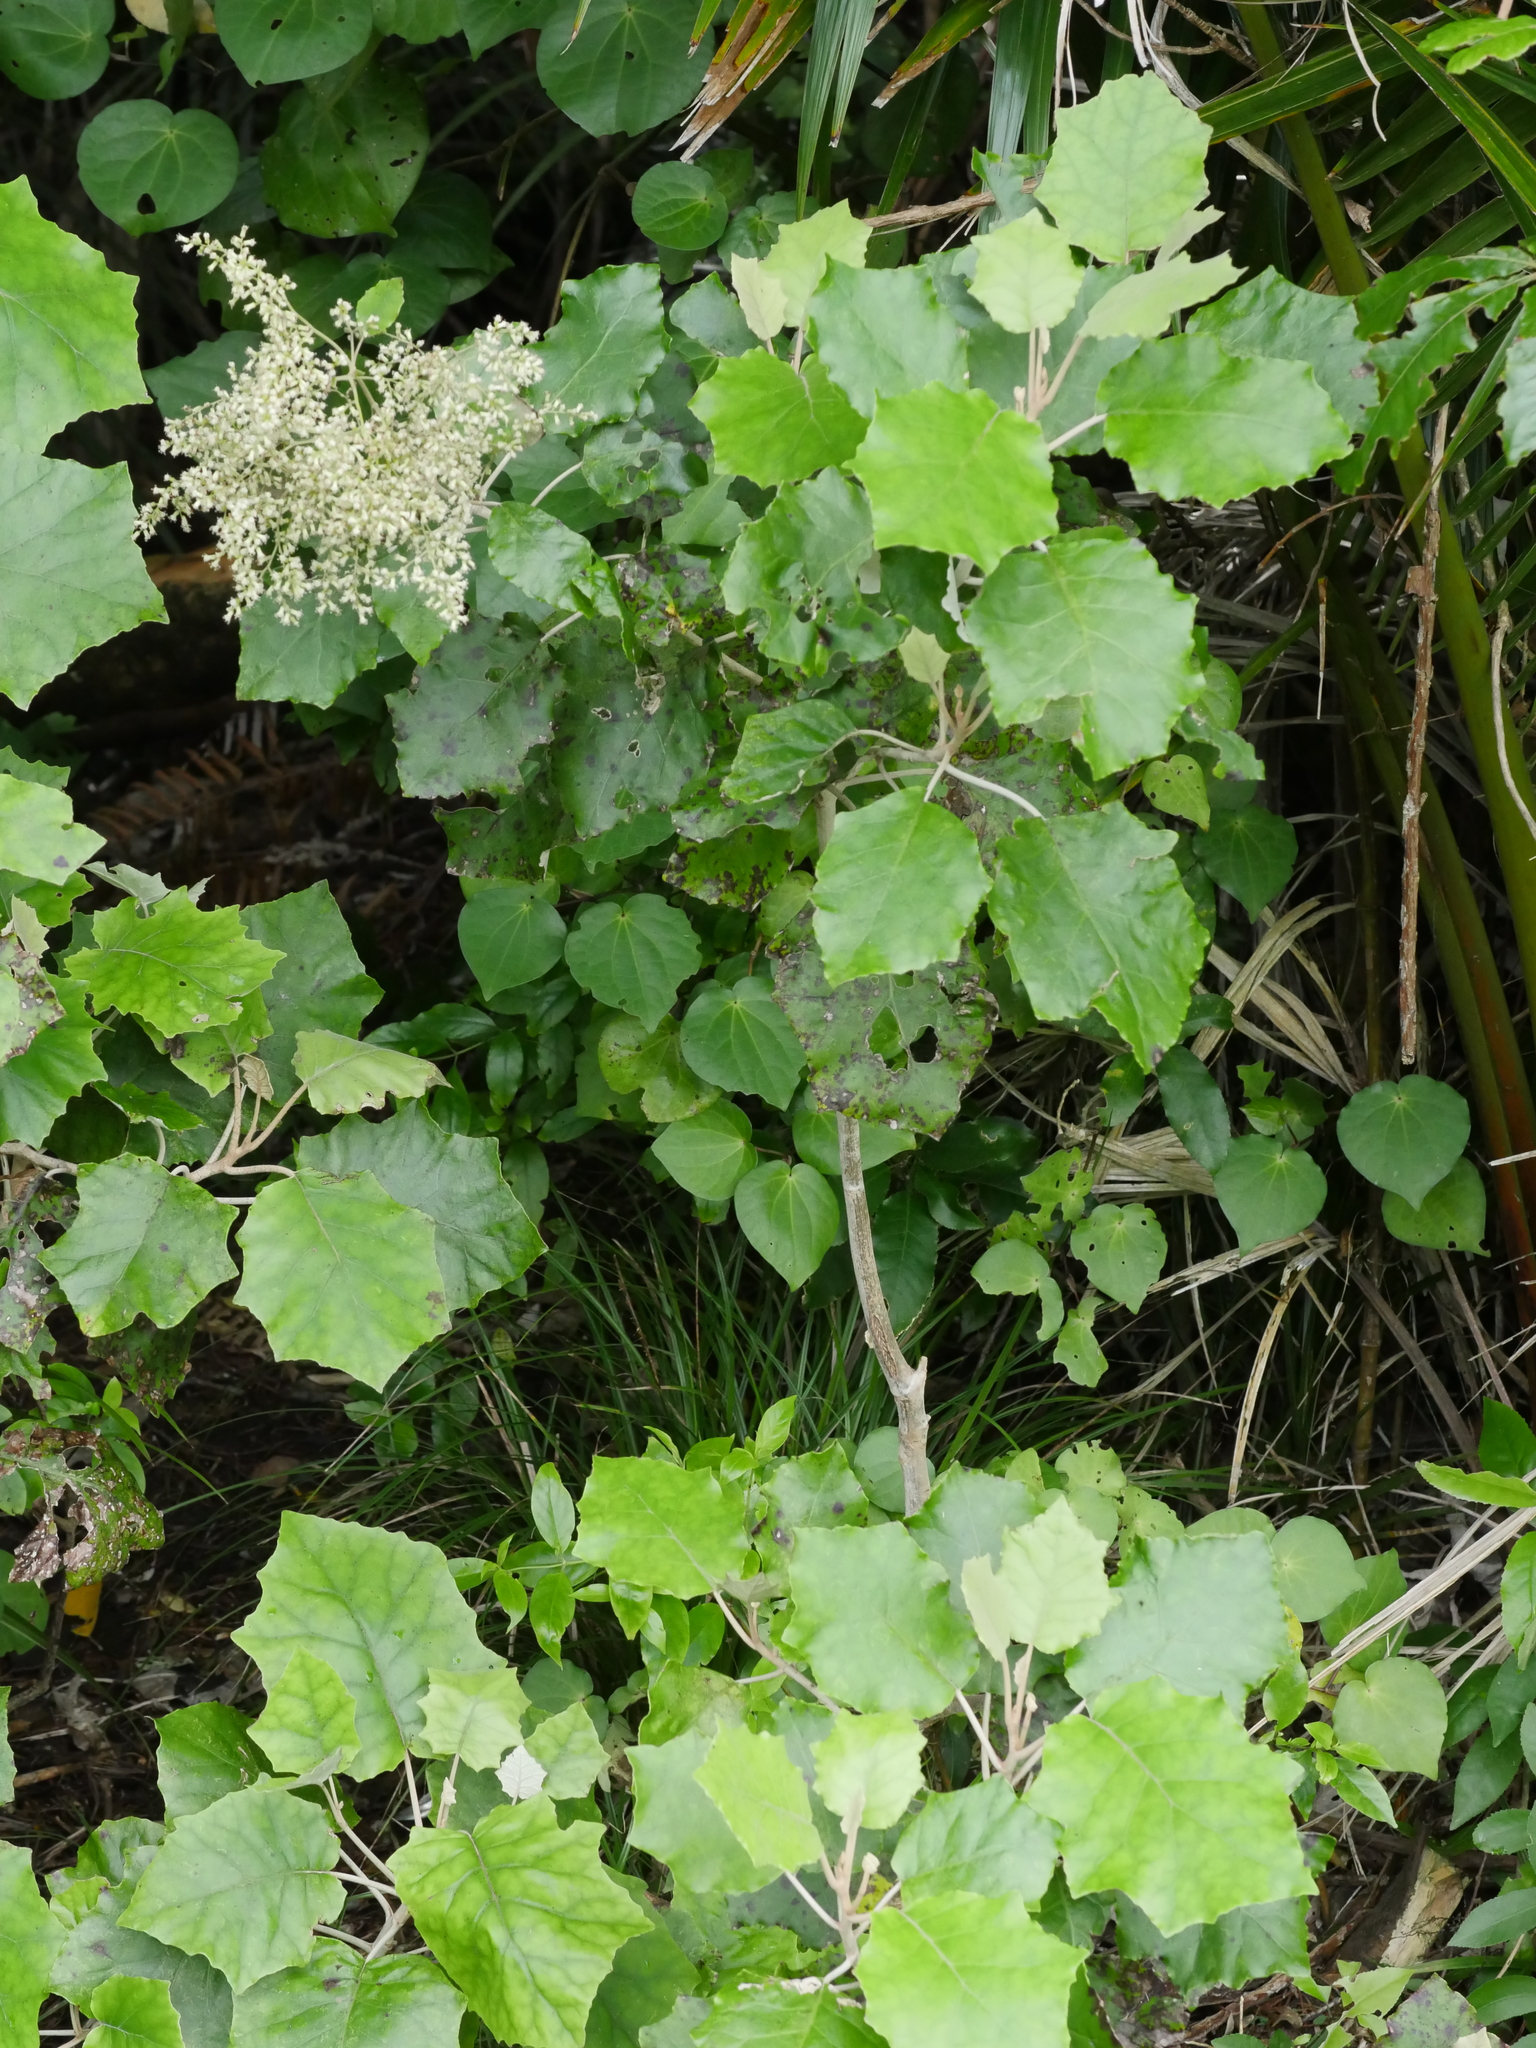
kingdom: Plantae
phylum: Tracheophyta
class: Magnoliopsida
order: Asterales
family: Asteraceae
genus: Brachyglottis
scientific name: Brachyglottis repanda
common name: Hedge ragwort
